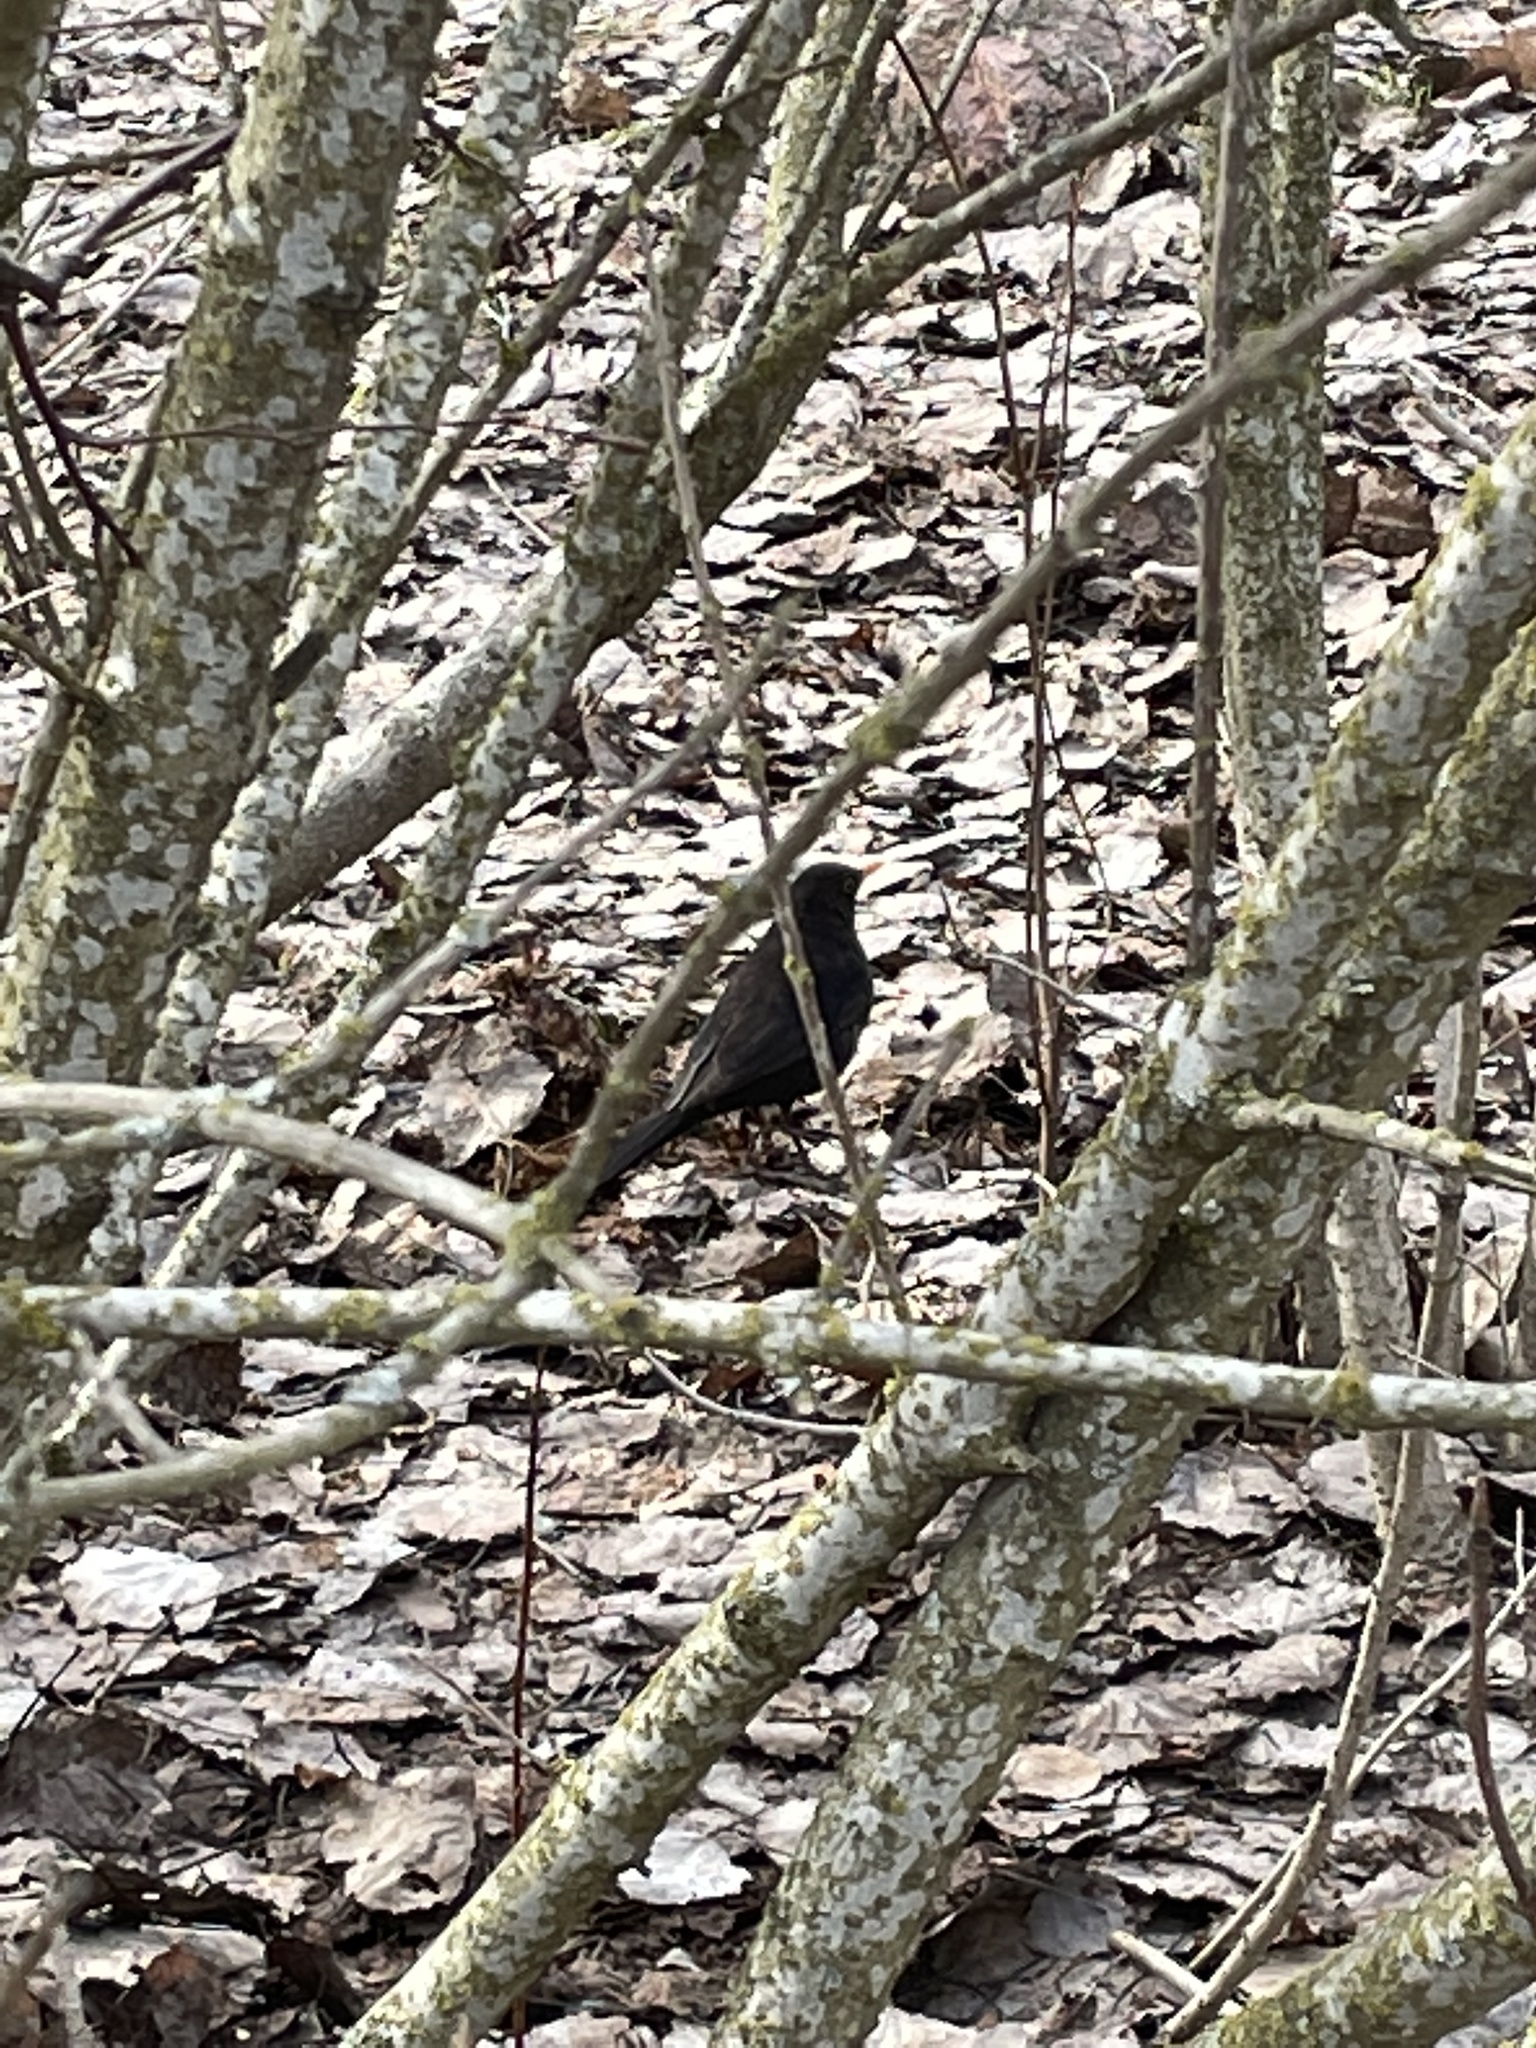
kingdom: Animalia
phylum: Chordata
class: Aves
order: Passeriformes
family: Turdidae
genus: Turdus
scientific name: Turdus merula
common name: Common blackbird
